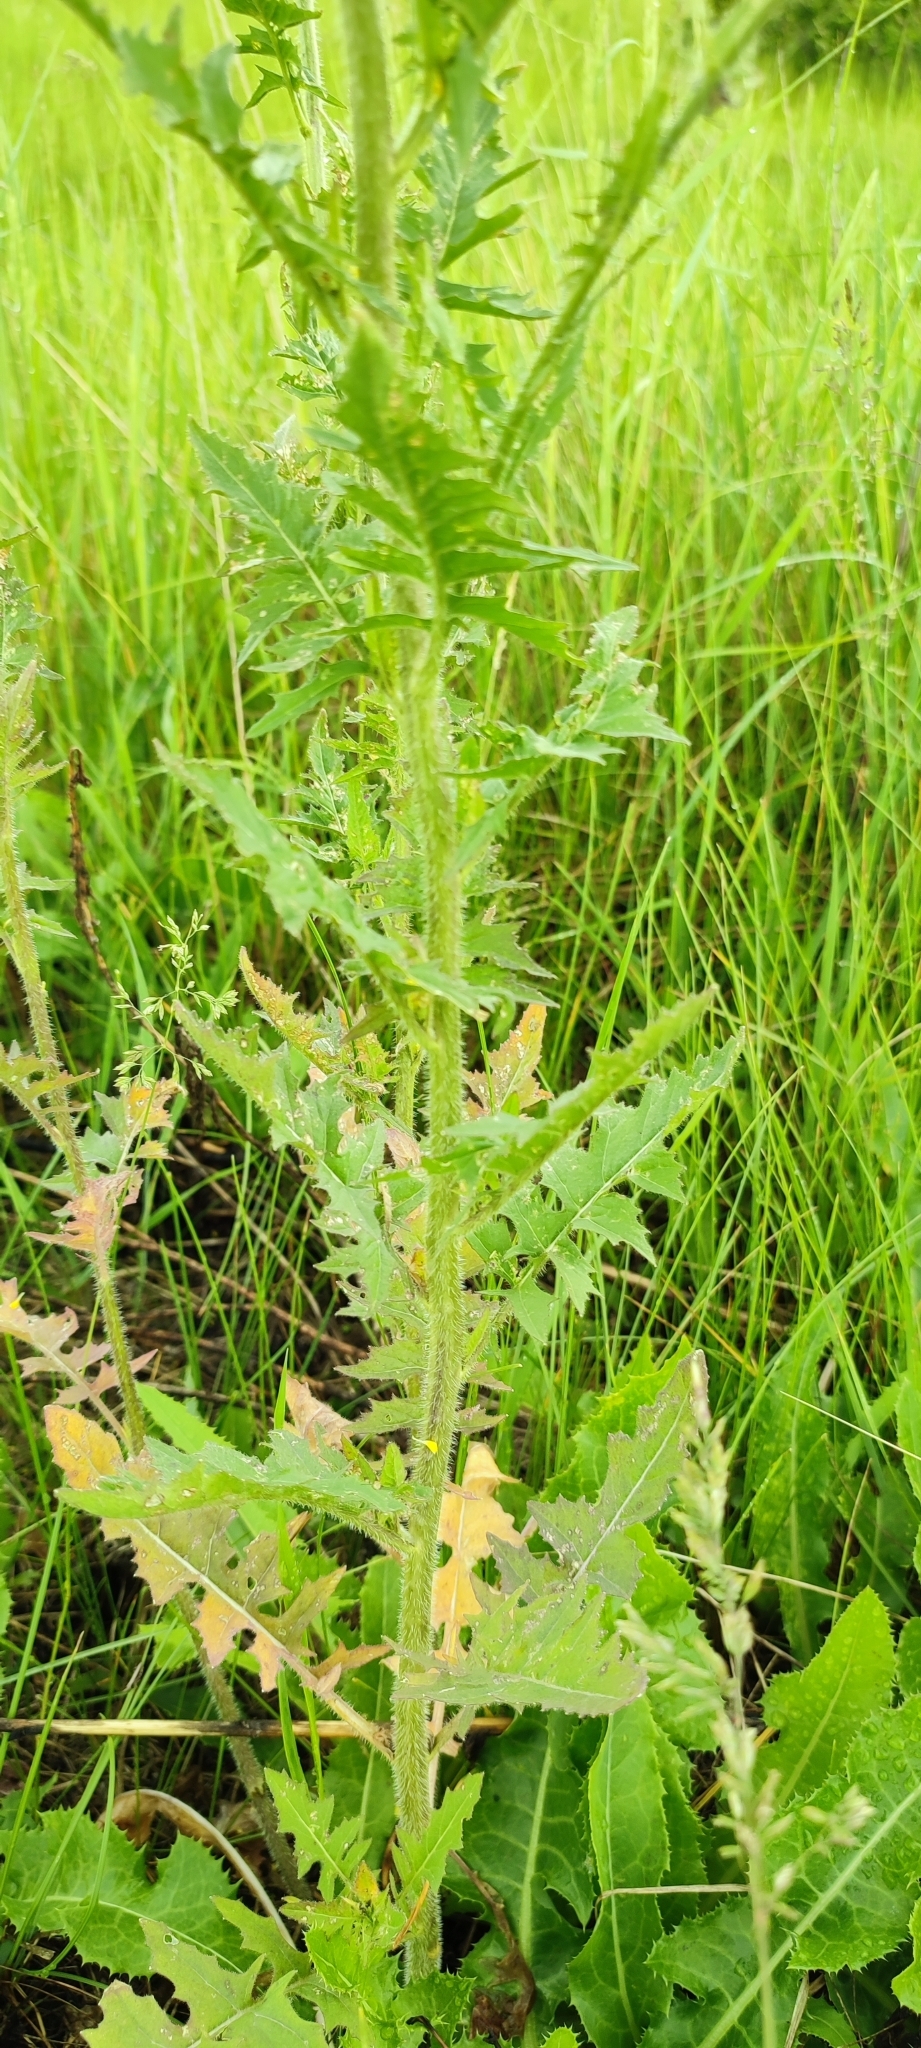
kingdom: Plantae
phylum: Tracheophyta
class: Magnoliopsida
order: Brassicales
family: Brassicaceae
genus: Sisymbrium
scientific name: Sisymbrium loeselii
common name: False london-rocket
